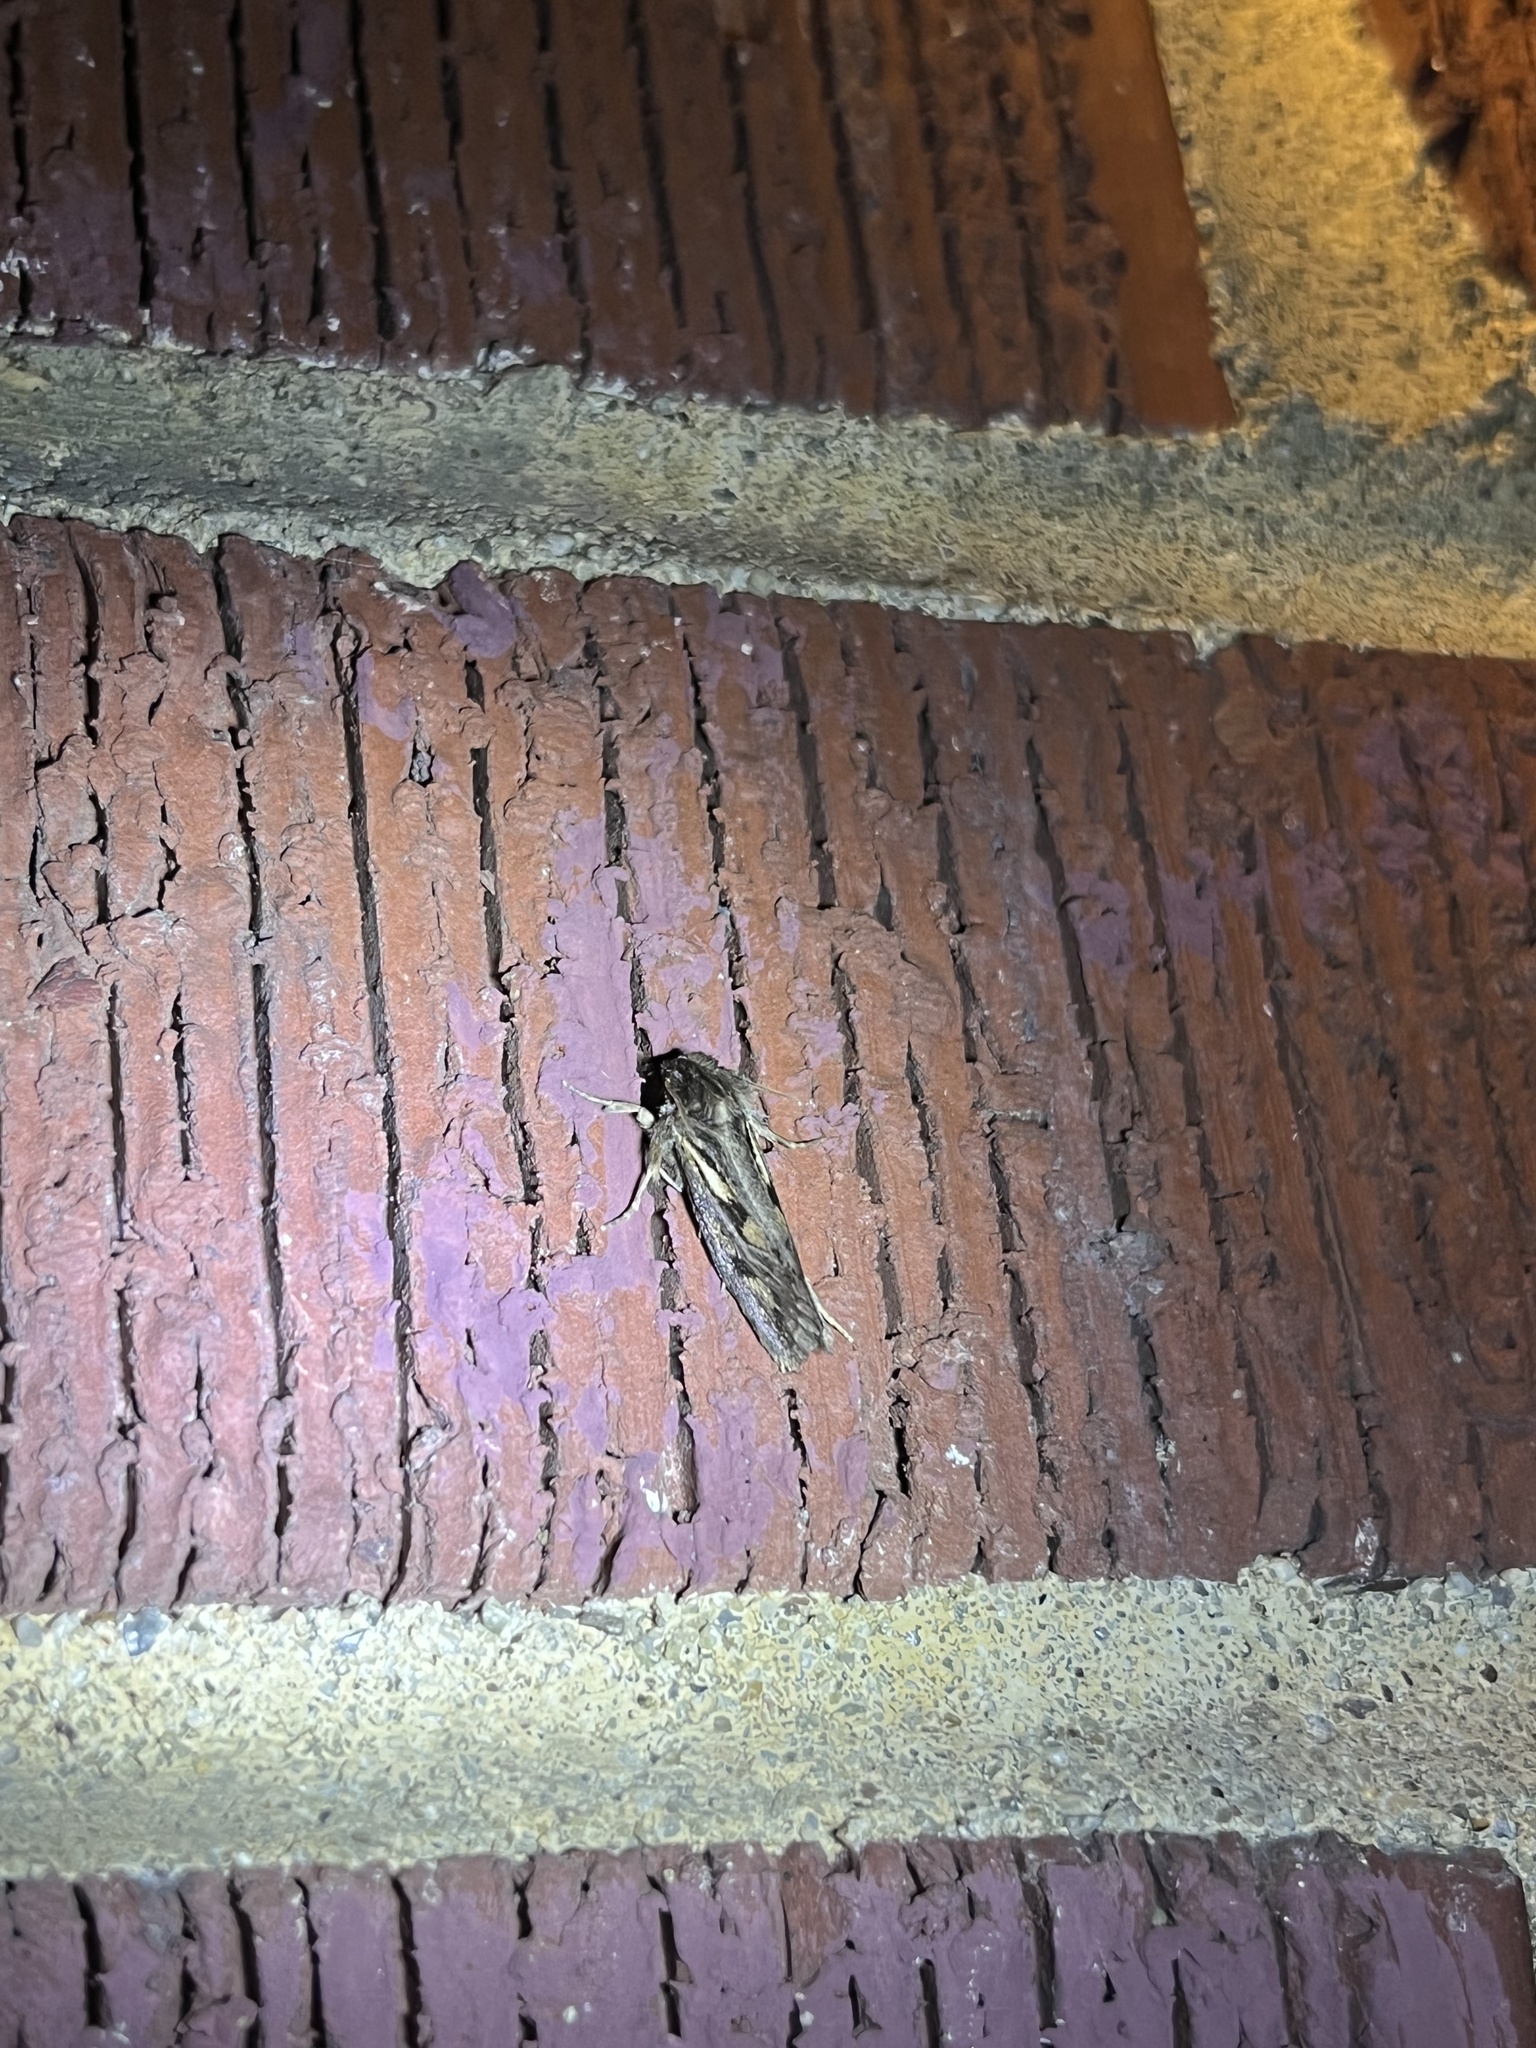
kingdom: Animalia
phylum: Arthropoda
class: Insecta
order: Lepidoptera
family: Tineidae
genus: Acrolophus
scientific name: Acrolophus popeanella
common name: Clemens' grass tubeworm moth
